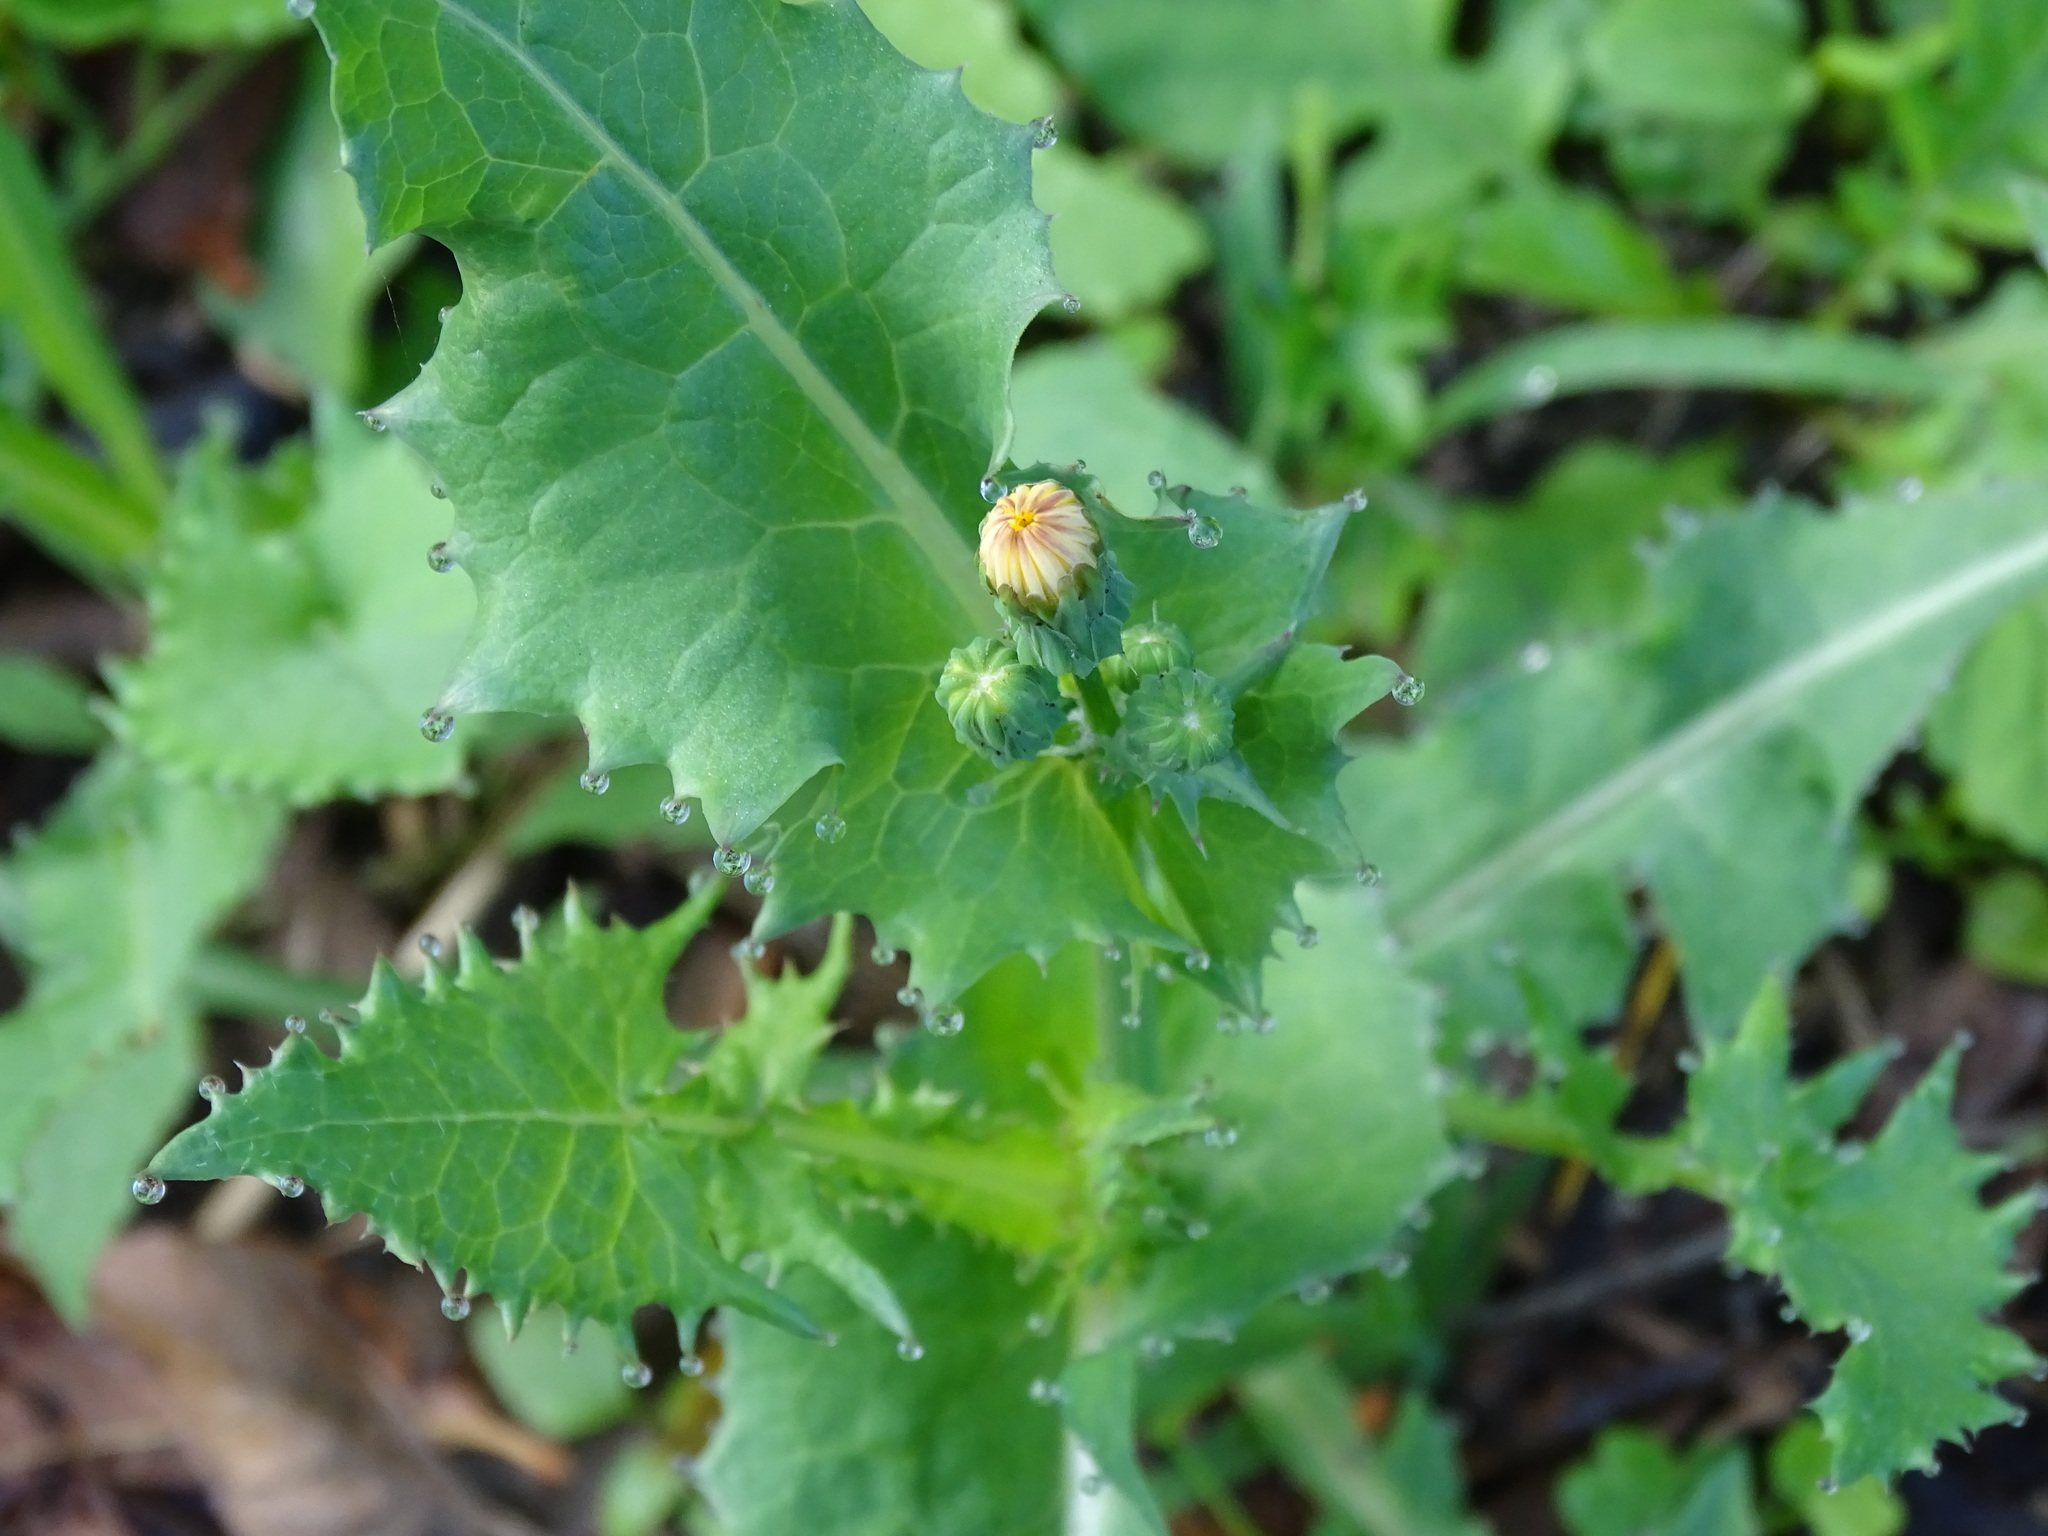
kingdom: Plantae
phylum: Tracheophyta
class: Magnoliopsida
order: Asterales
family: Asteraceae
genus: Sonchus
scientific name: Sonchus oleraceus
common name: Common sowthistle
